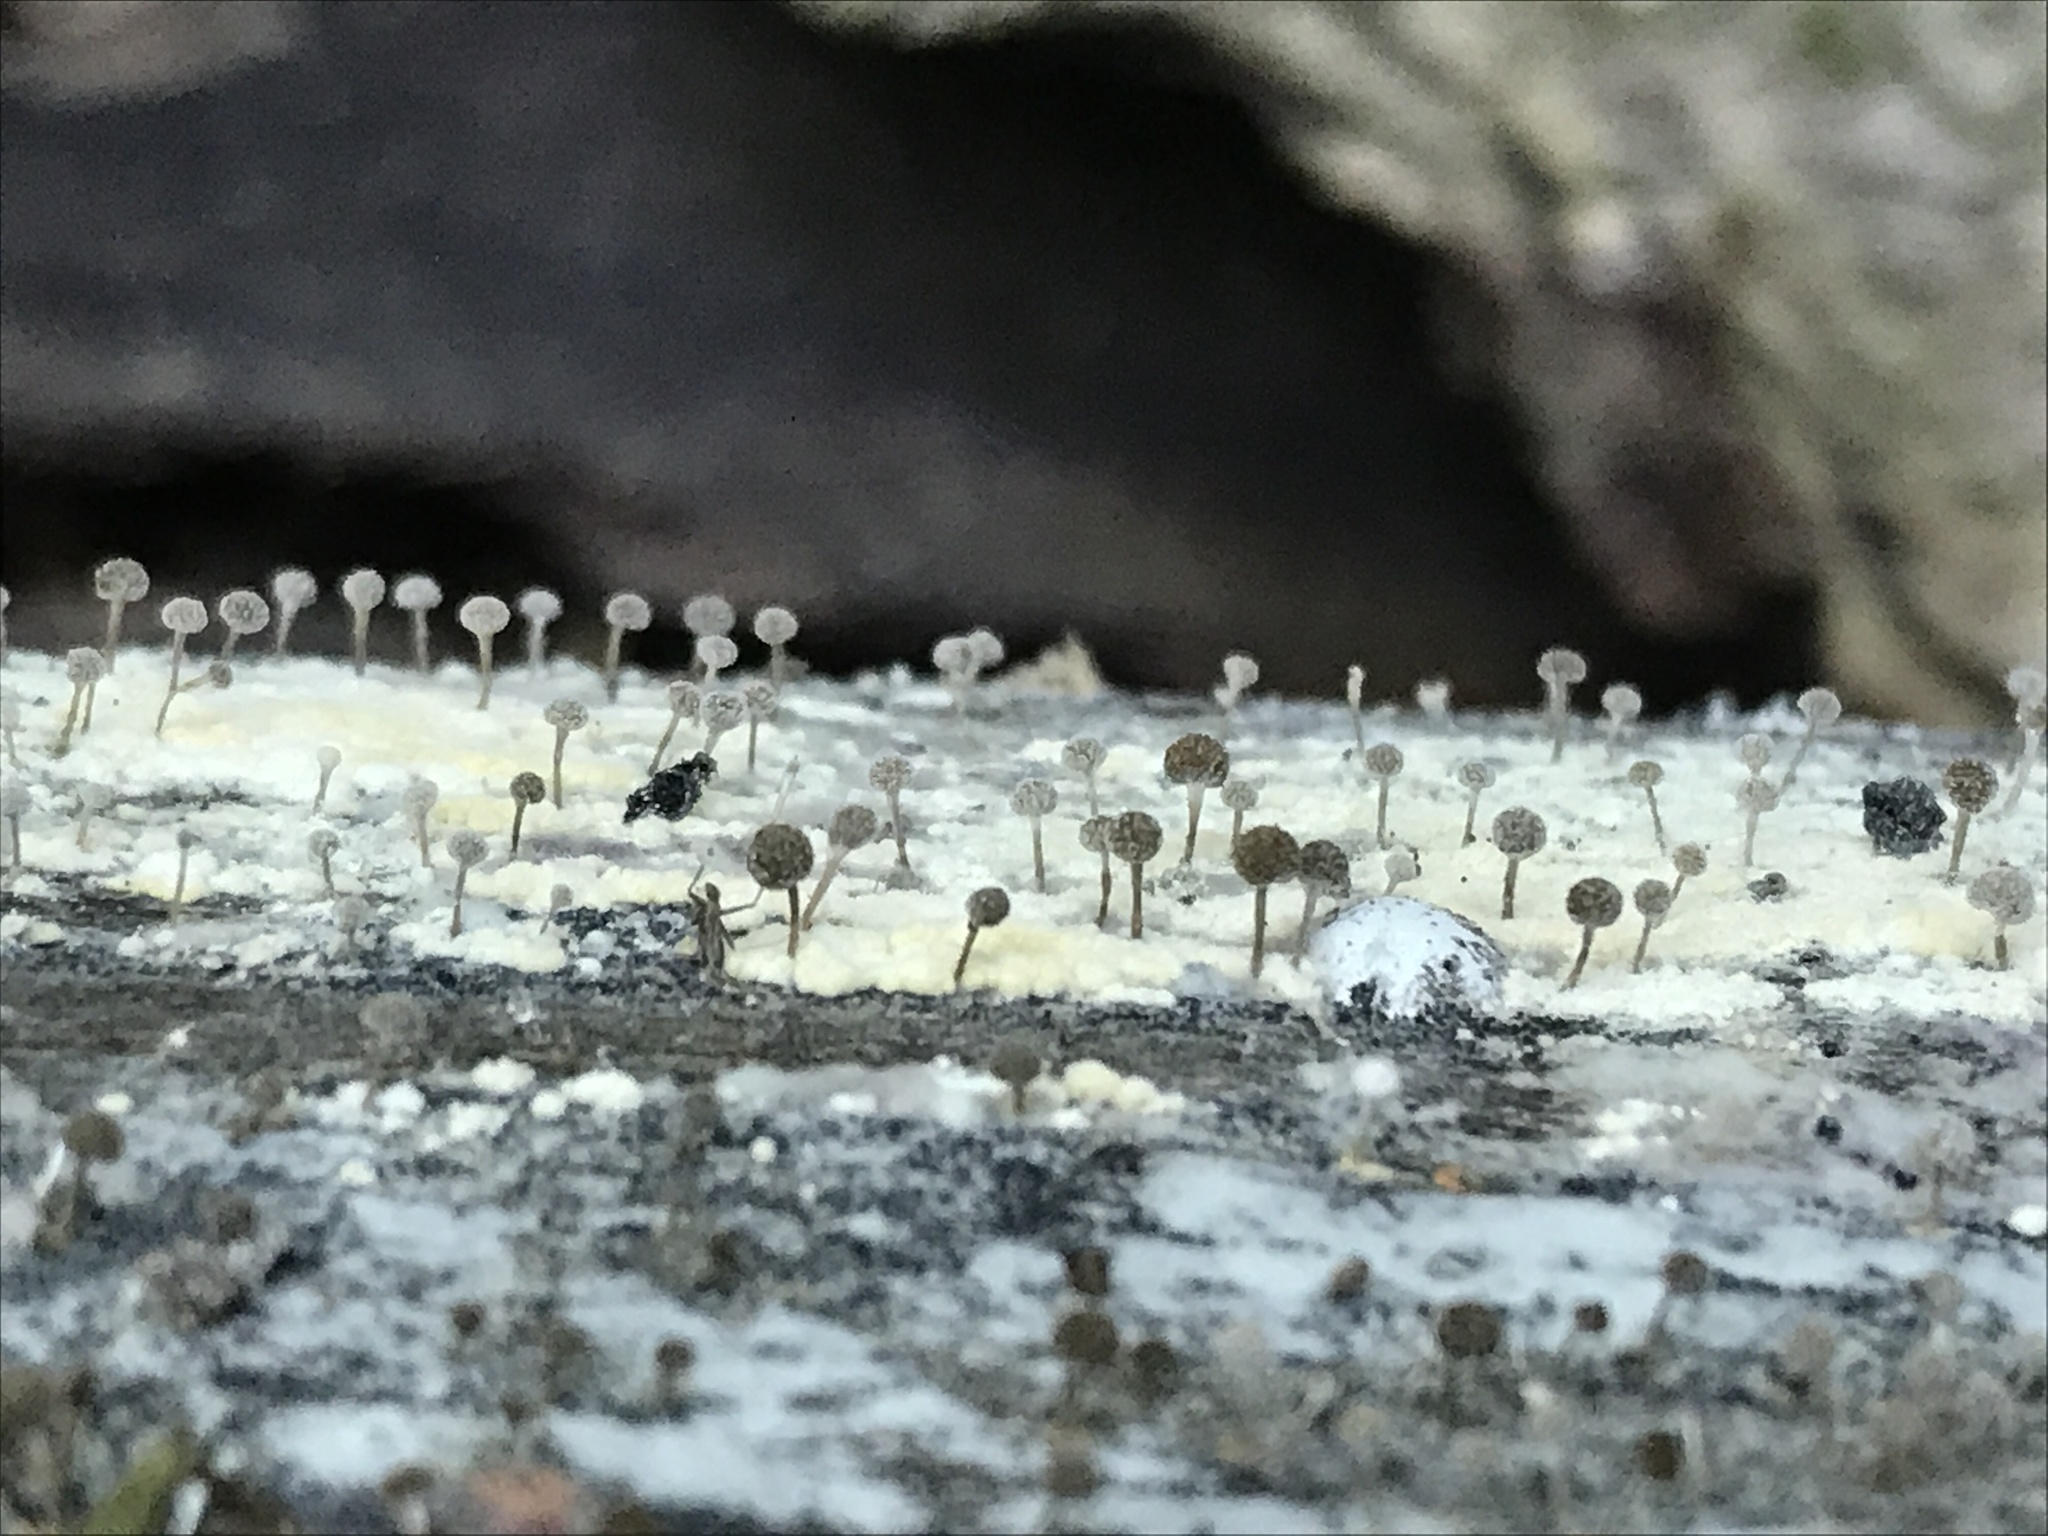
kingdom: Fungi
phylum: Basidiomycota
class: Atractiellomycetes
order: Atractiellales
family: Phleogenaceae
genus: Phleogena
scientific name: Phleogena faginea
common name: Fenugreek stalkball
